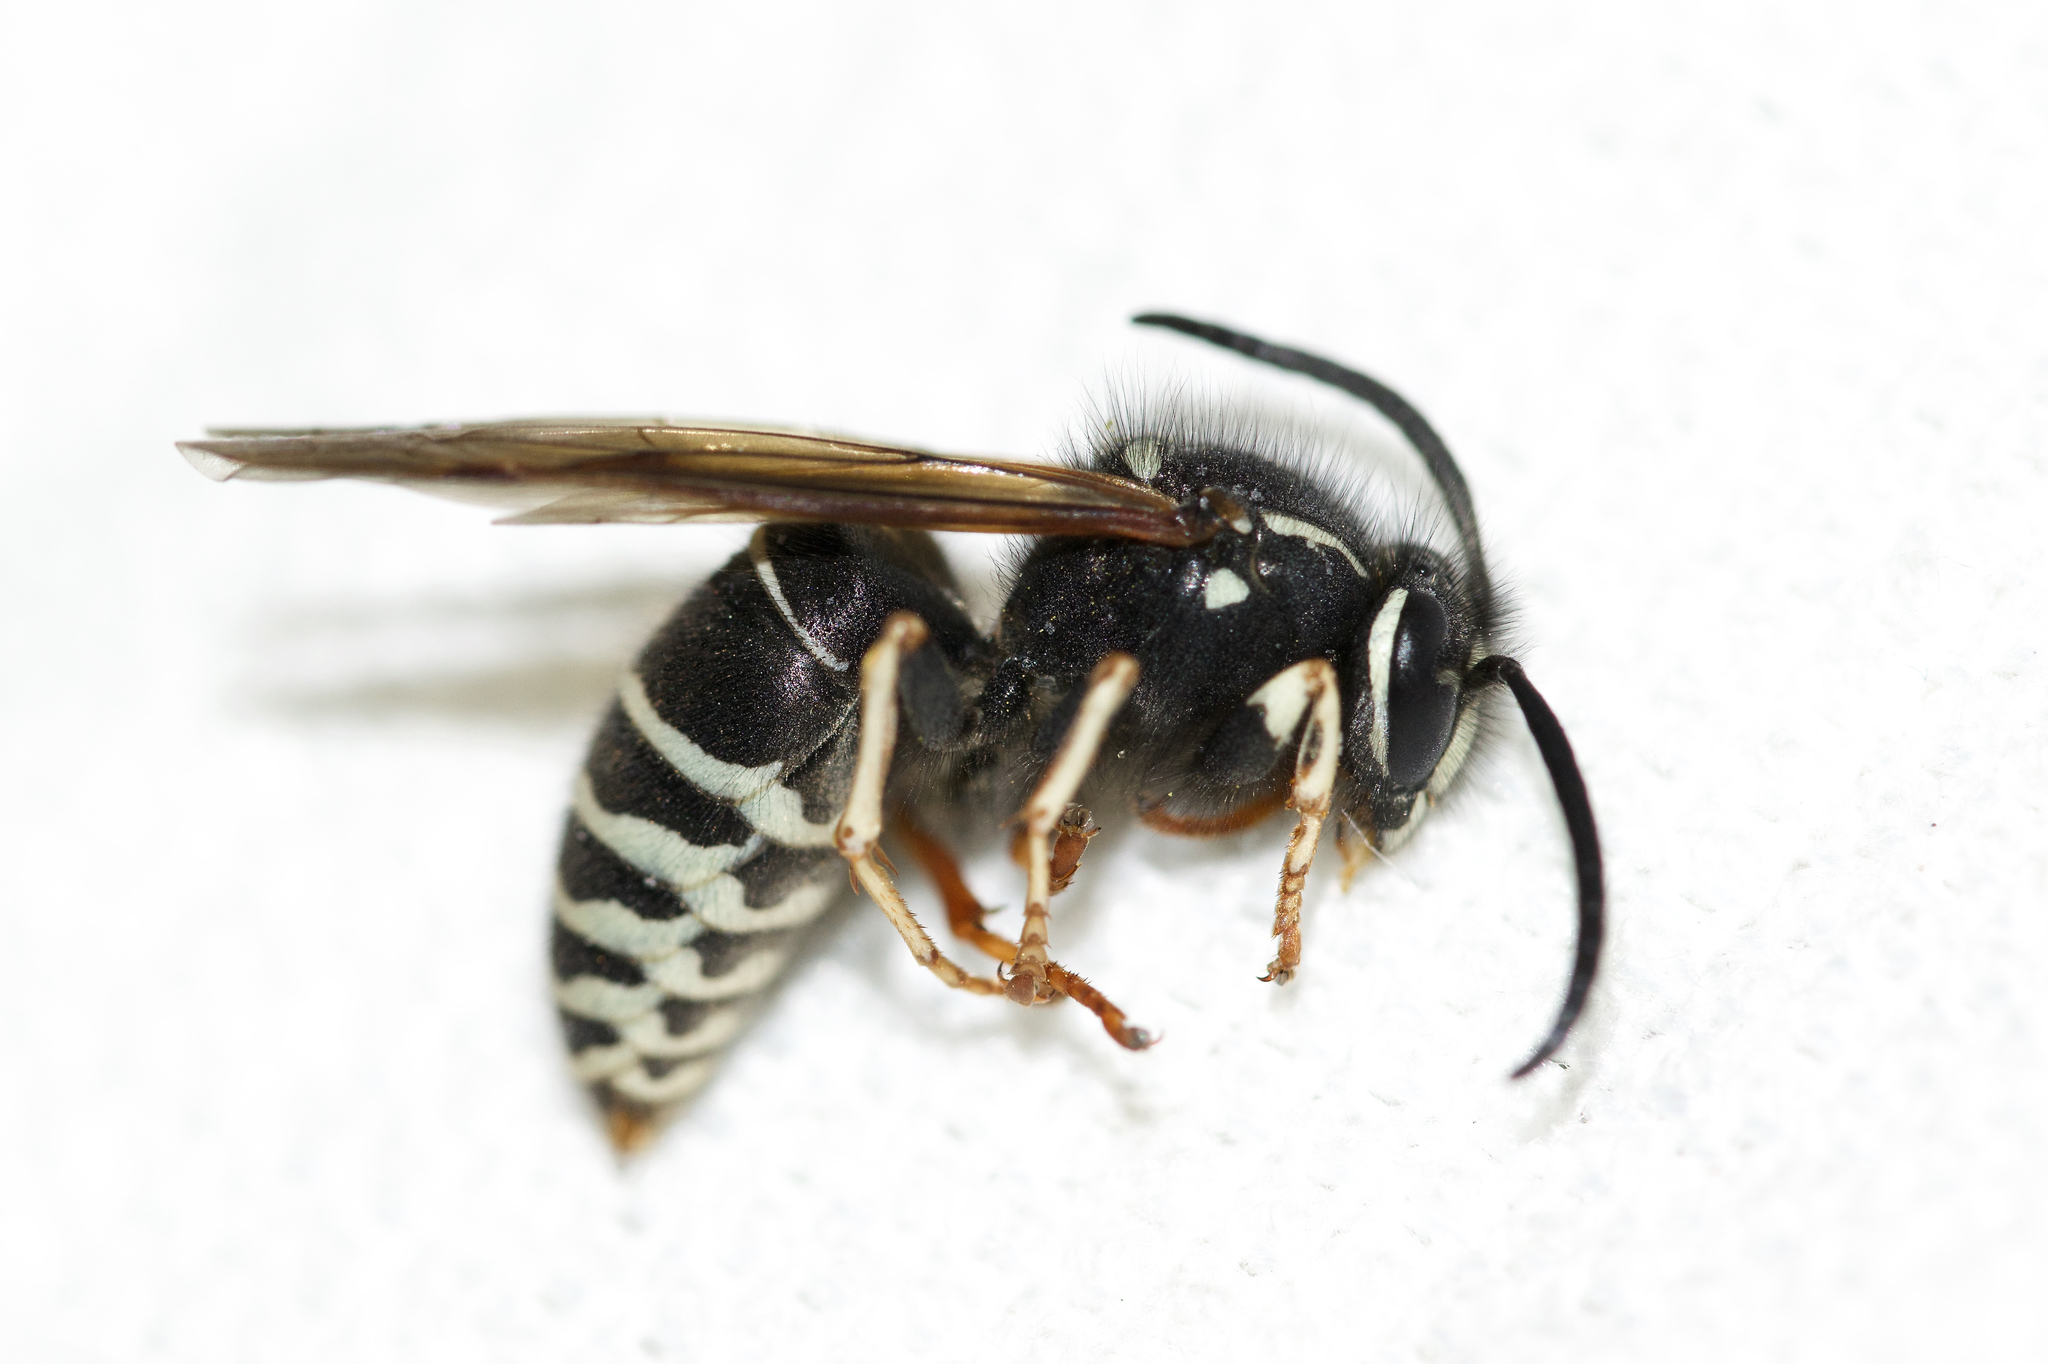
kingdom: Animalia
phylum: Arthropoda
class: Insecta
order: Hymenoptera
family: Vespidae
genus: Vespula
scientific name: Vespula consobrina
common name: Blackjacket
